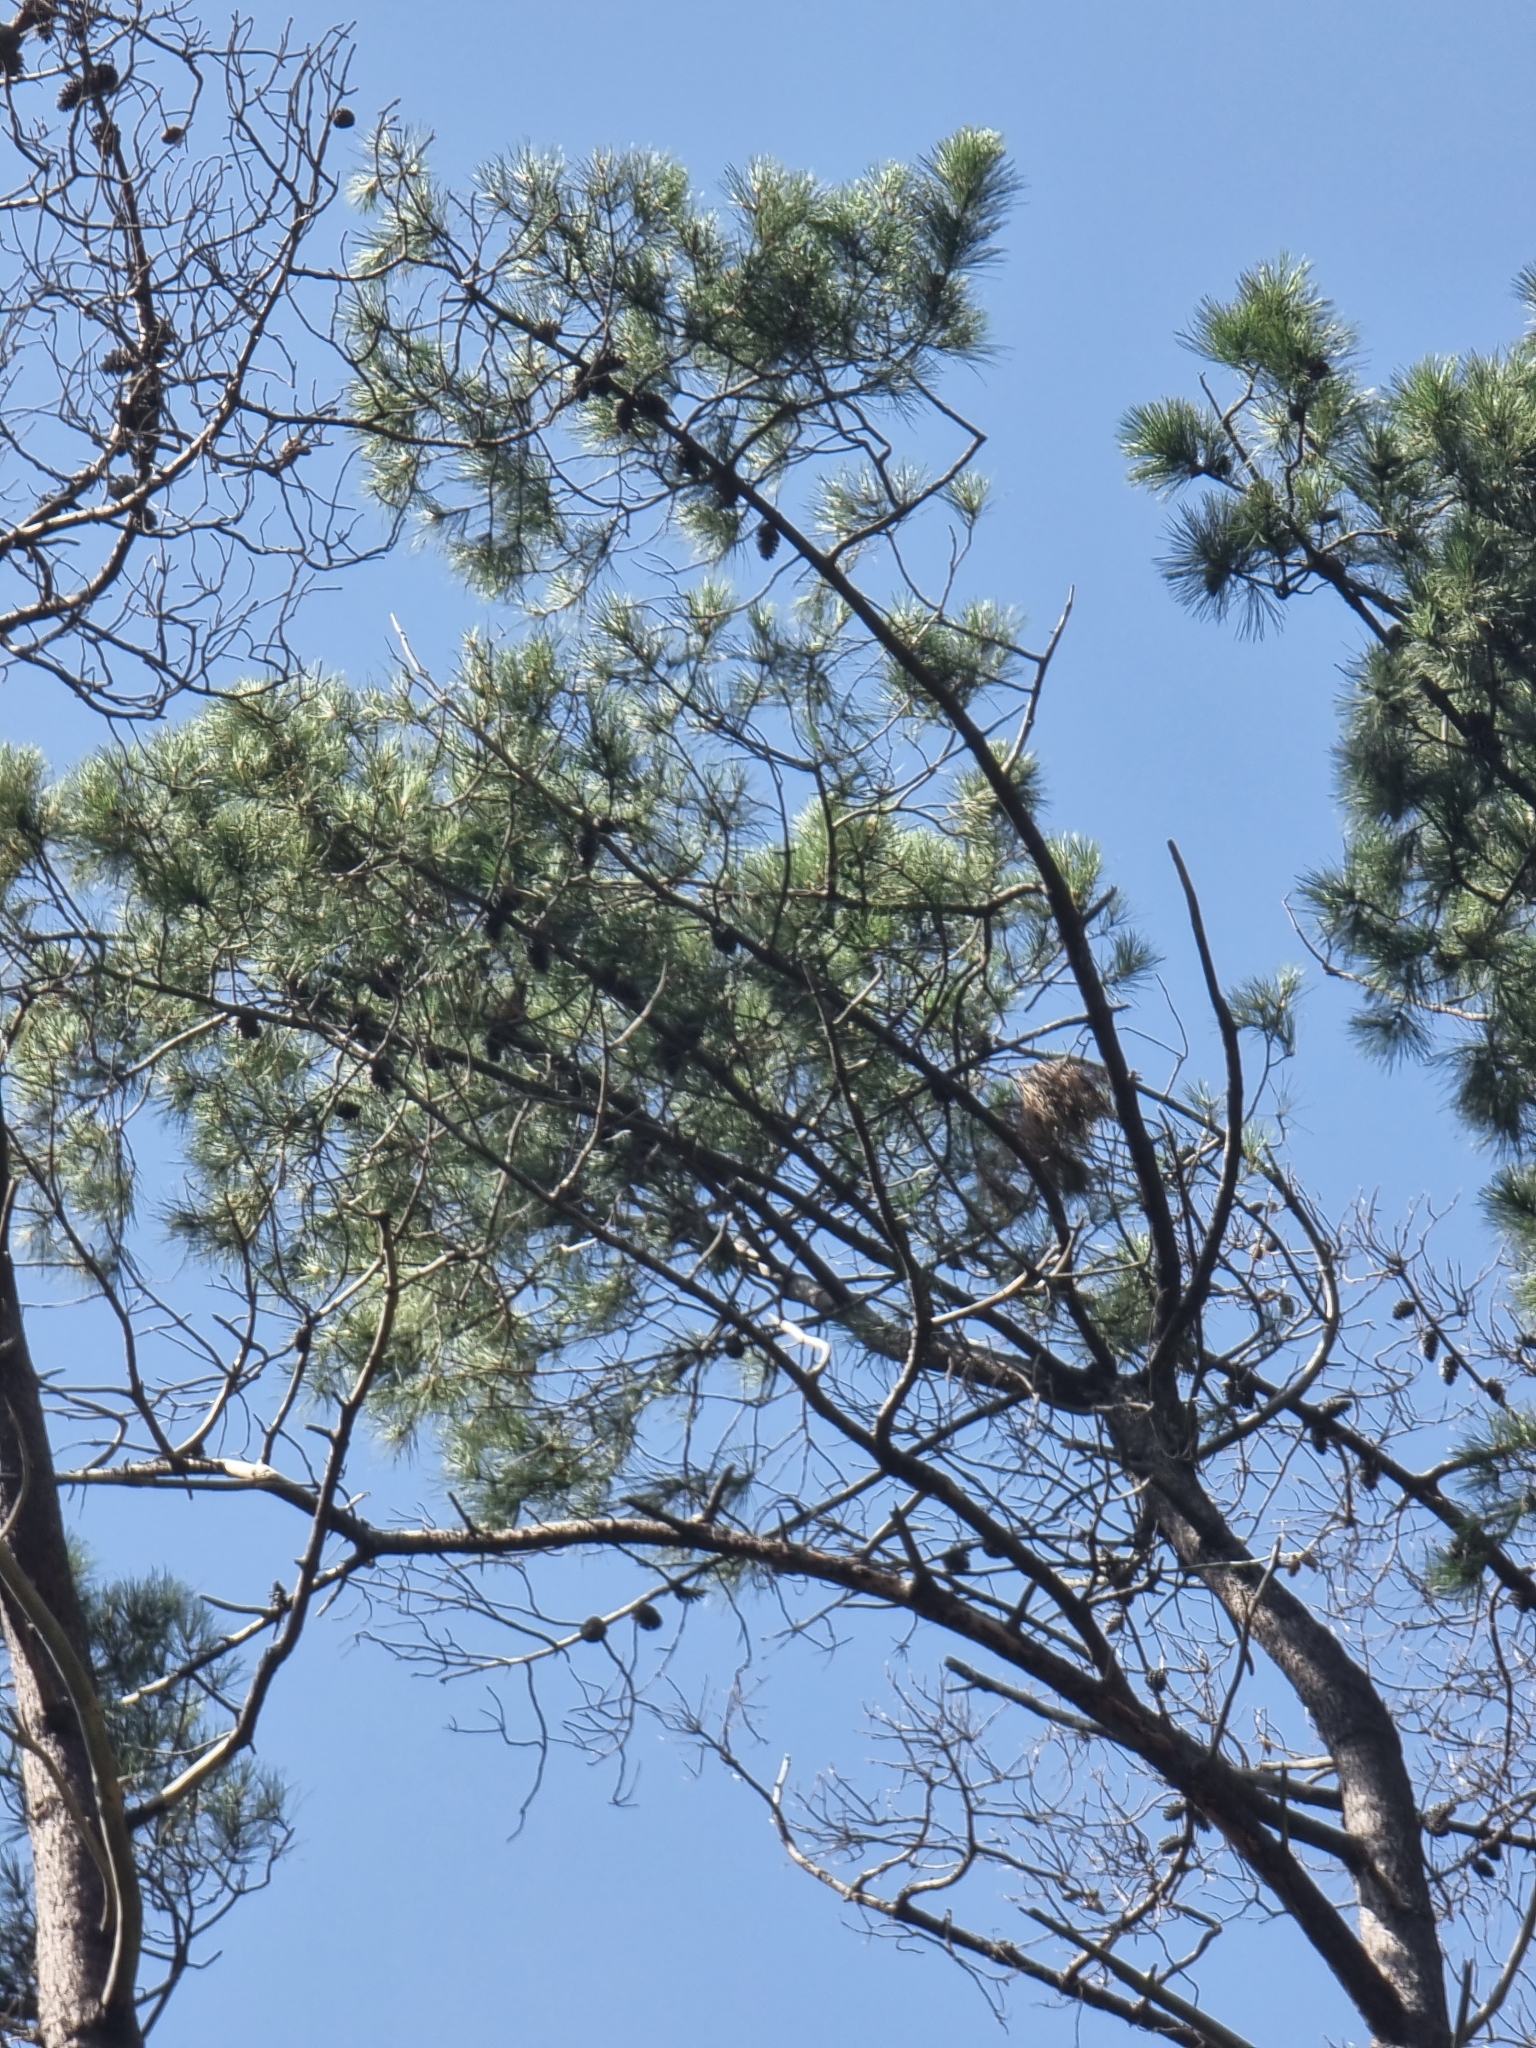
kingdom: Plantae
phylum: Tracheophyta
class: Pinopsida
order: Pinales
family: Pinaceae
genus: Pinus
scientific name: Pinus pinaster
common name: Maritime pine
